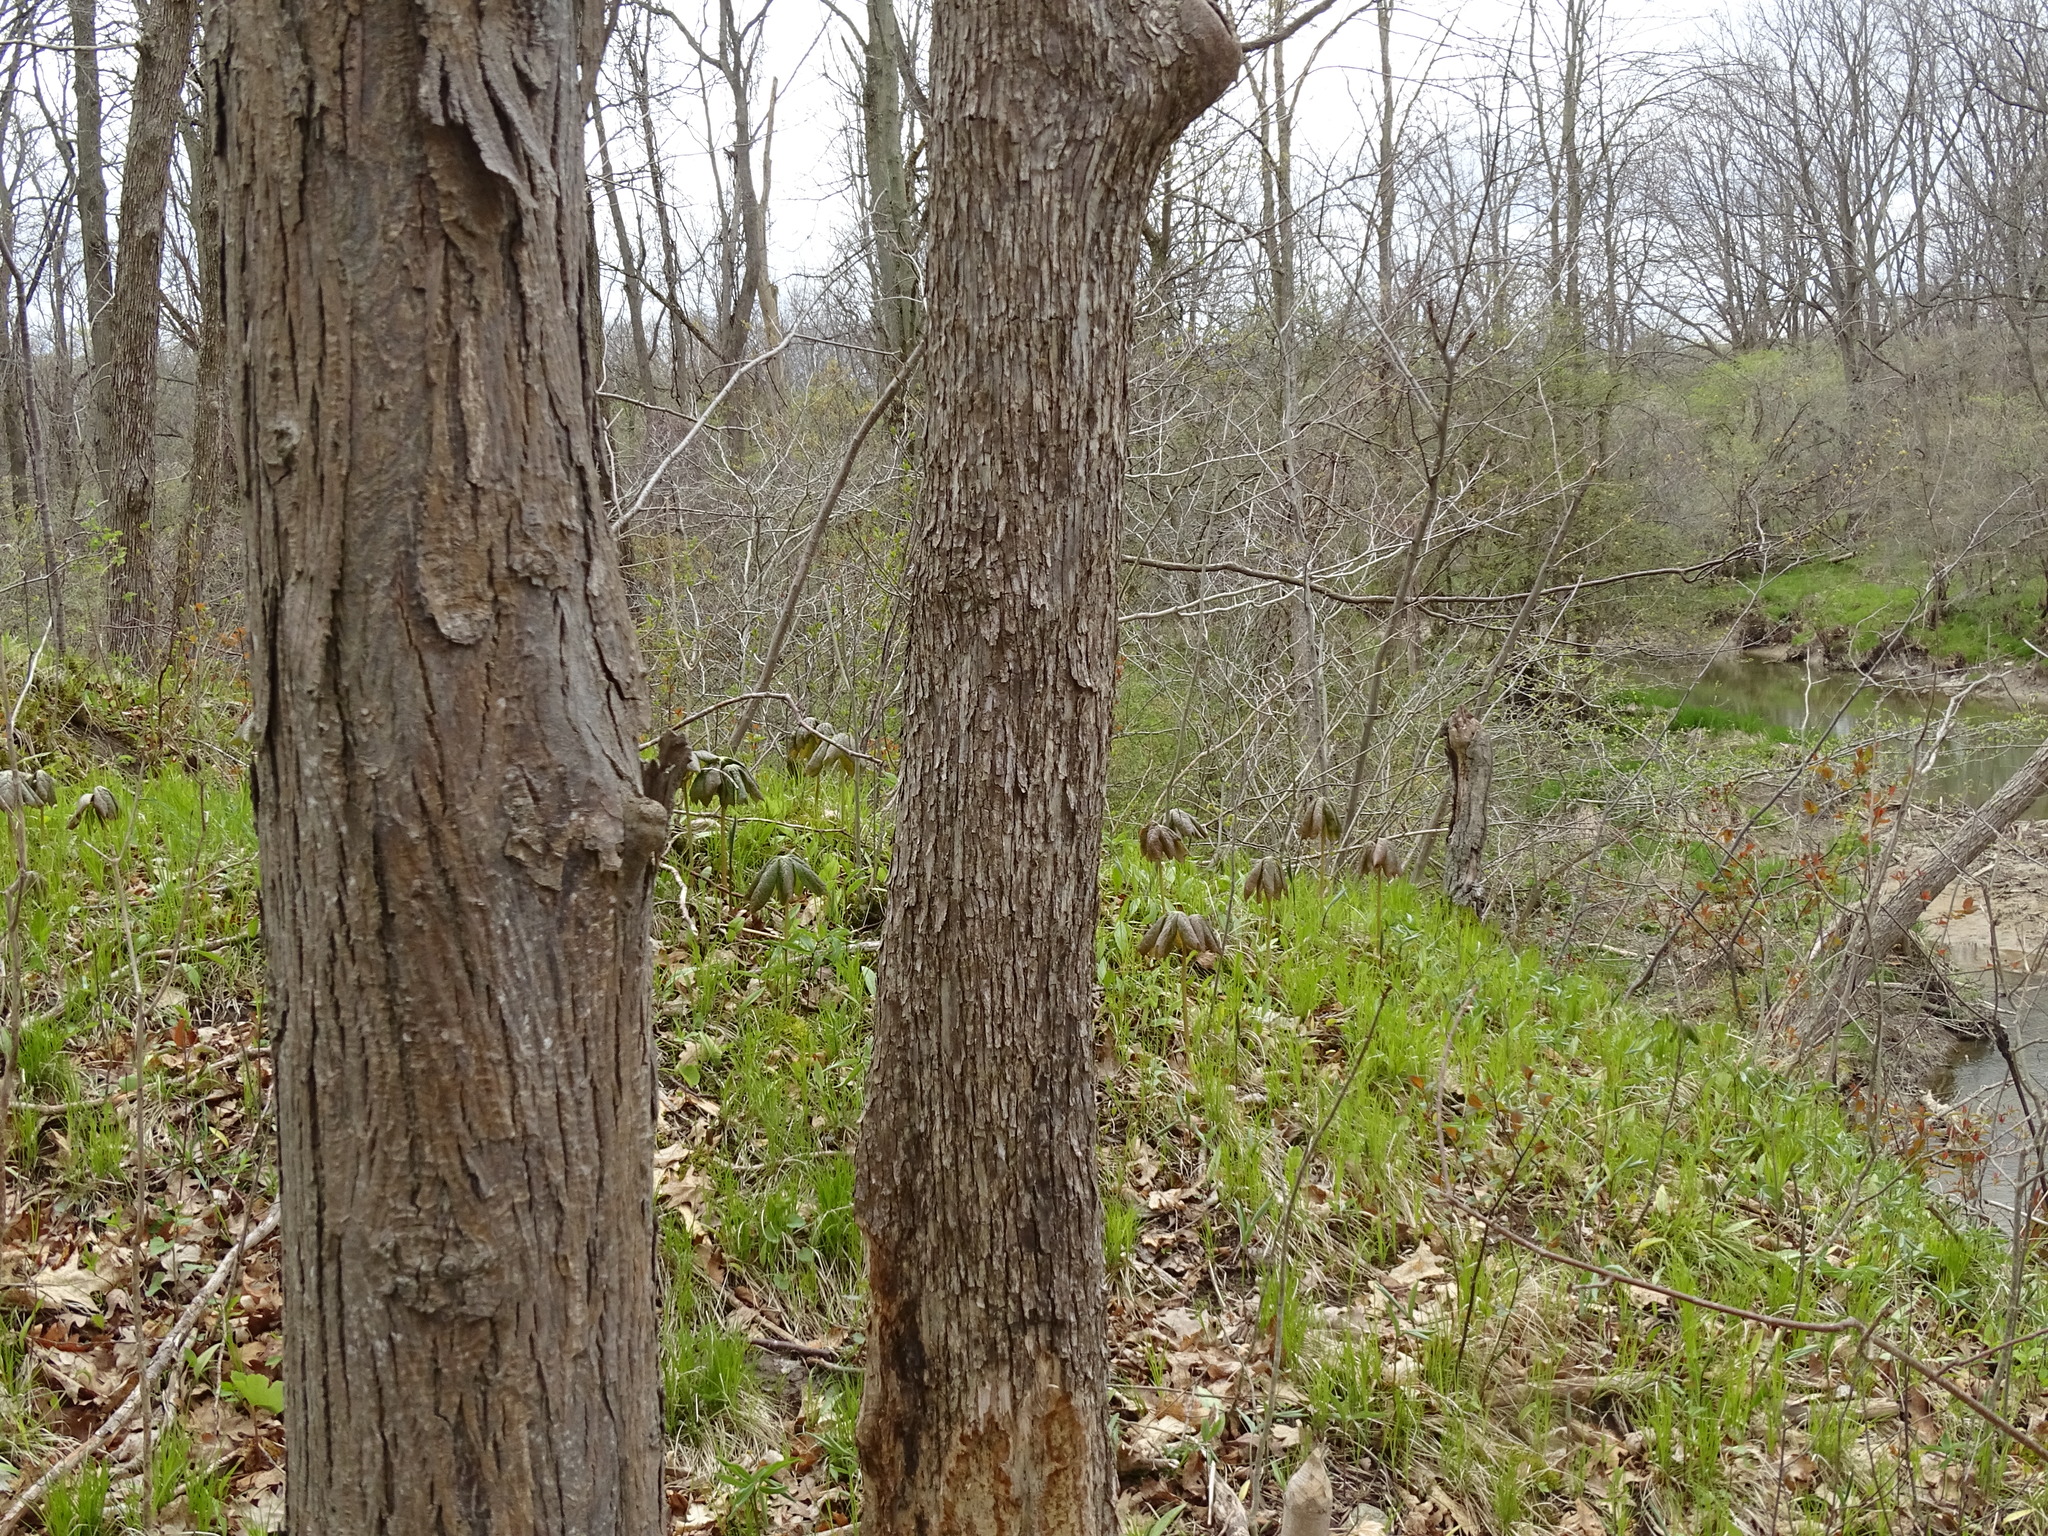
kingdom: Plantae
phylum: Tracheophyta
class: Magnoliopsida
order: Fagales
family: Betulaceae
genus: Ostrya
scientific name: Ostrya virginiana
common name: Ironwood
